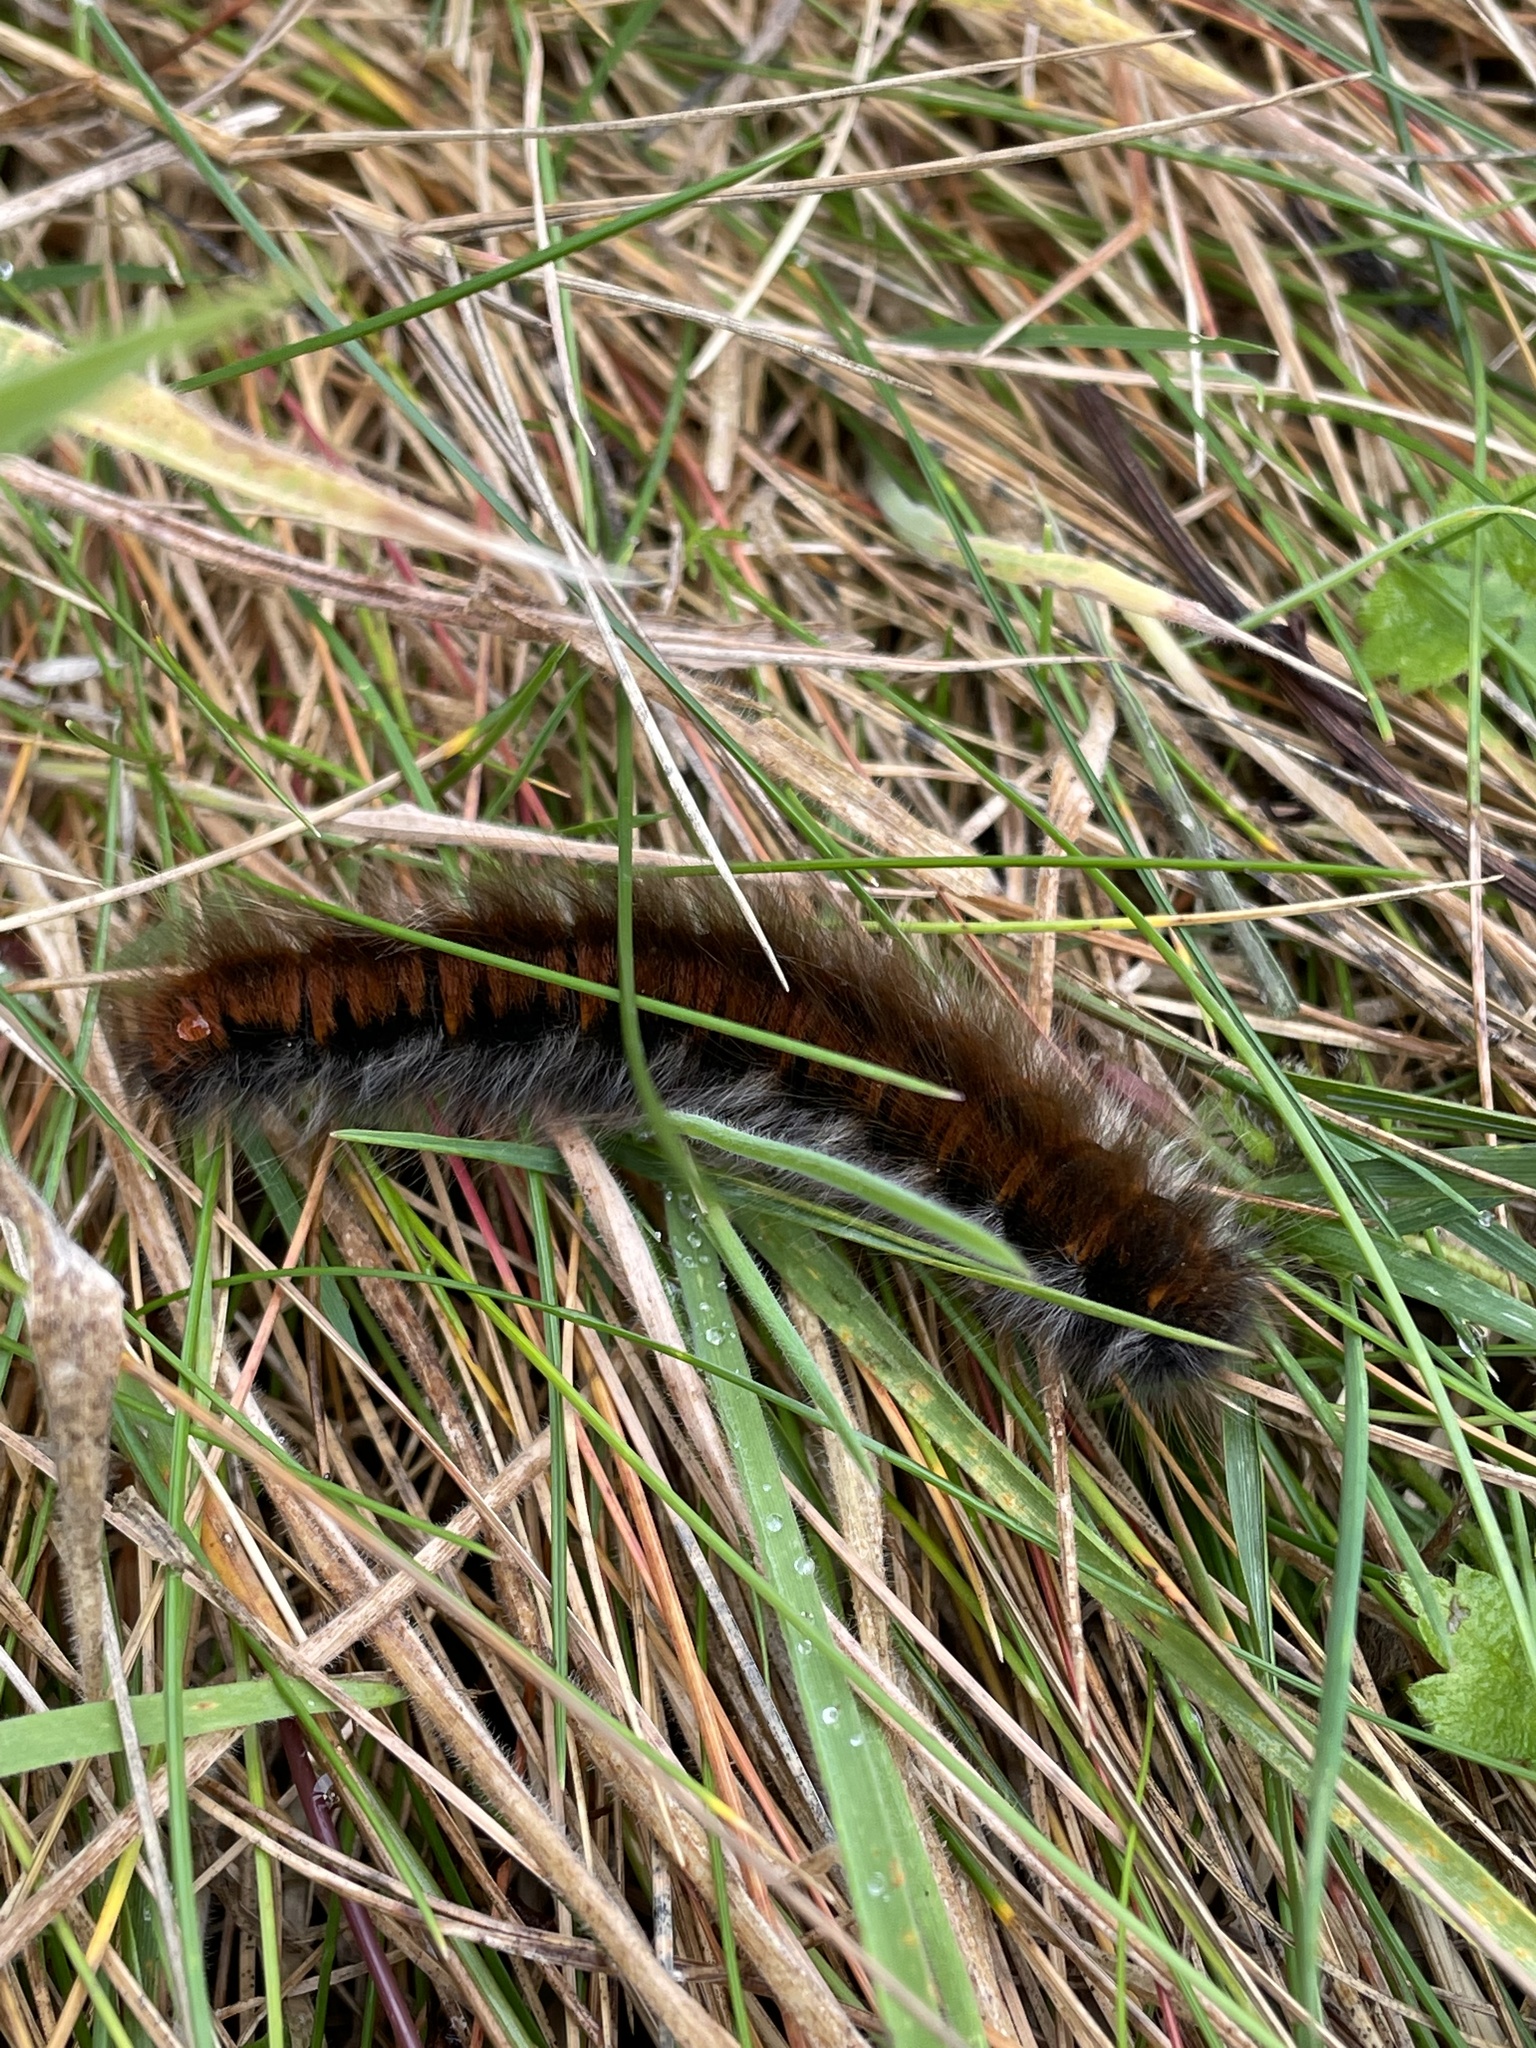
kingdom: Animalia
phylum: Arthropoda
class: Insecta
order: Lepidoptera
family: Lasiocampidae
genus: Macrothylacia
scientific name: Macrothylacia rubi
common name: Fox moth
